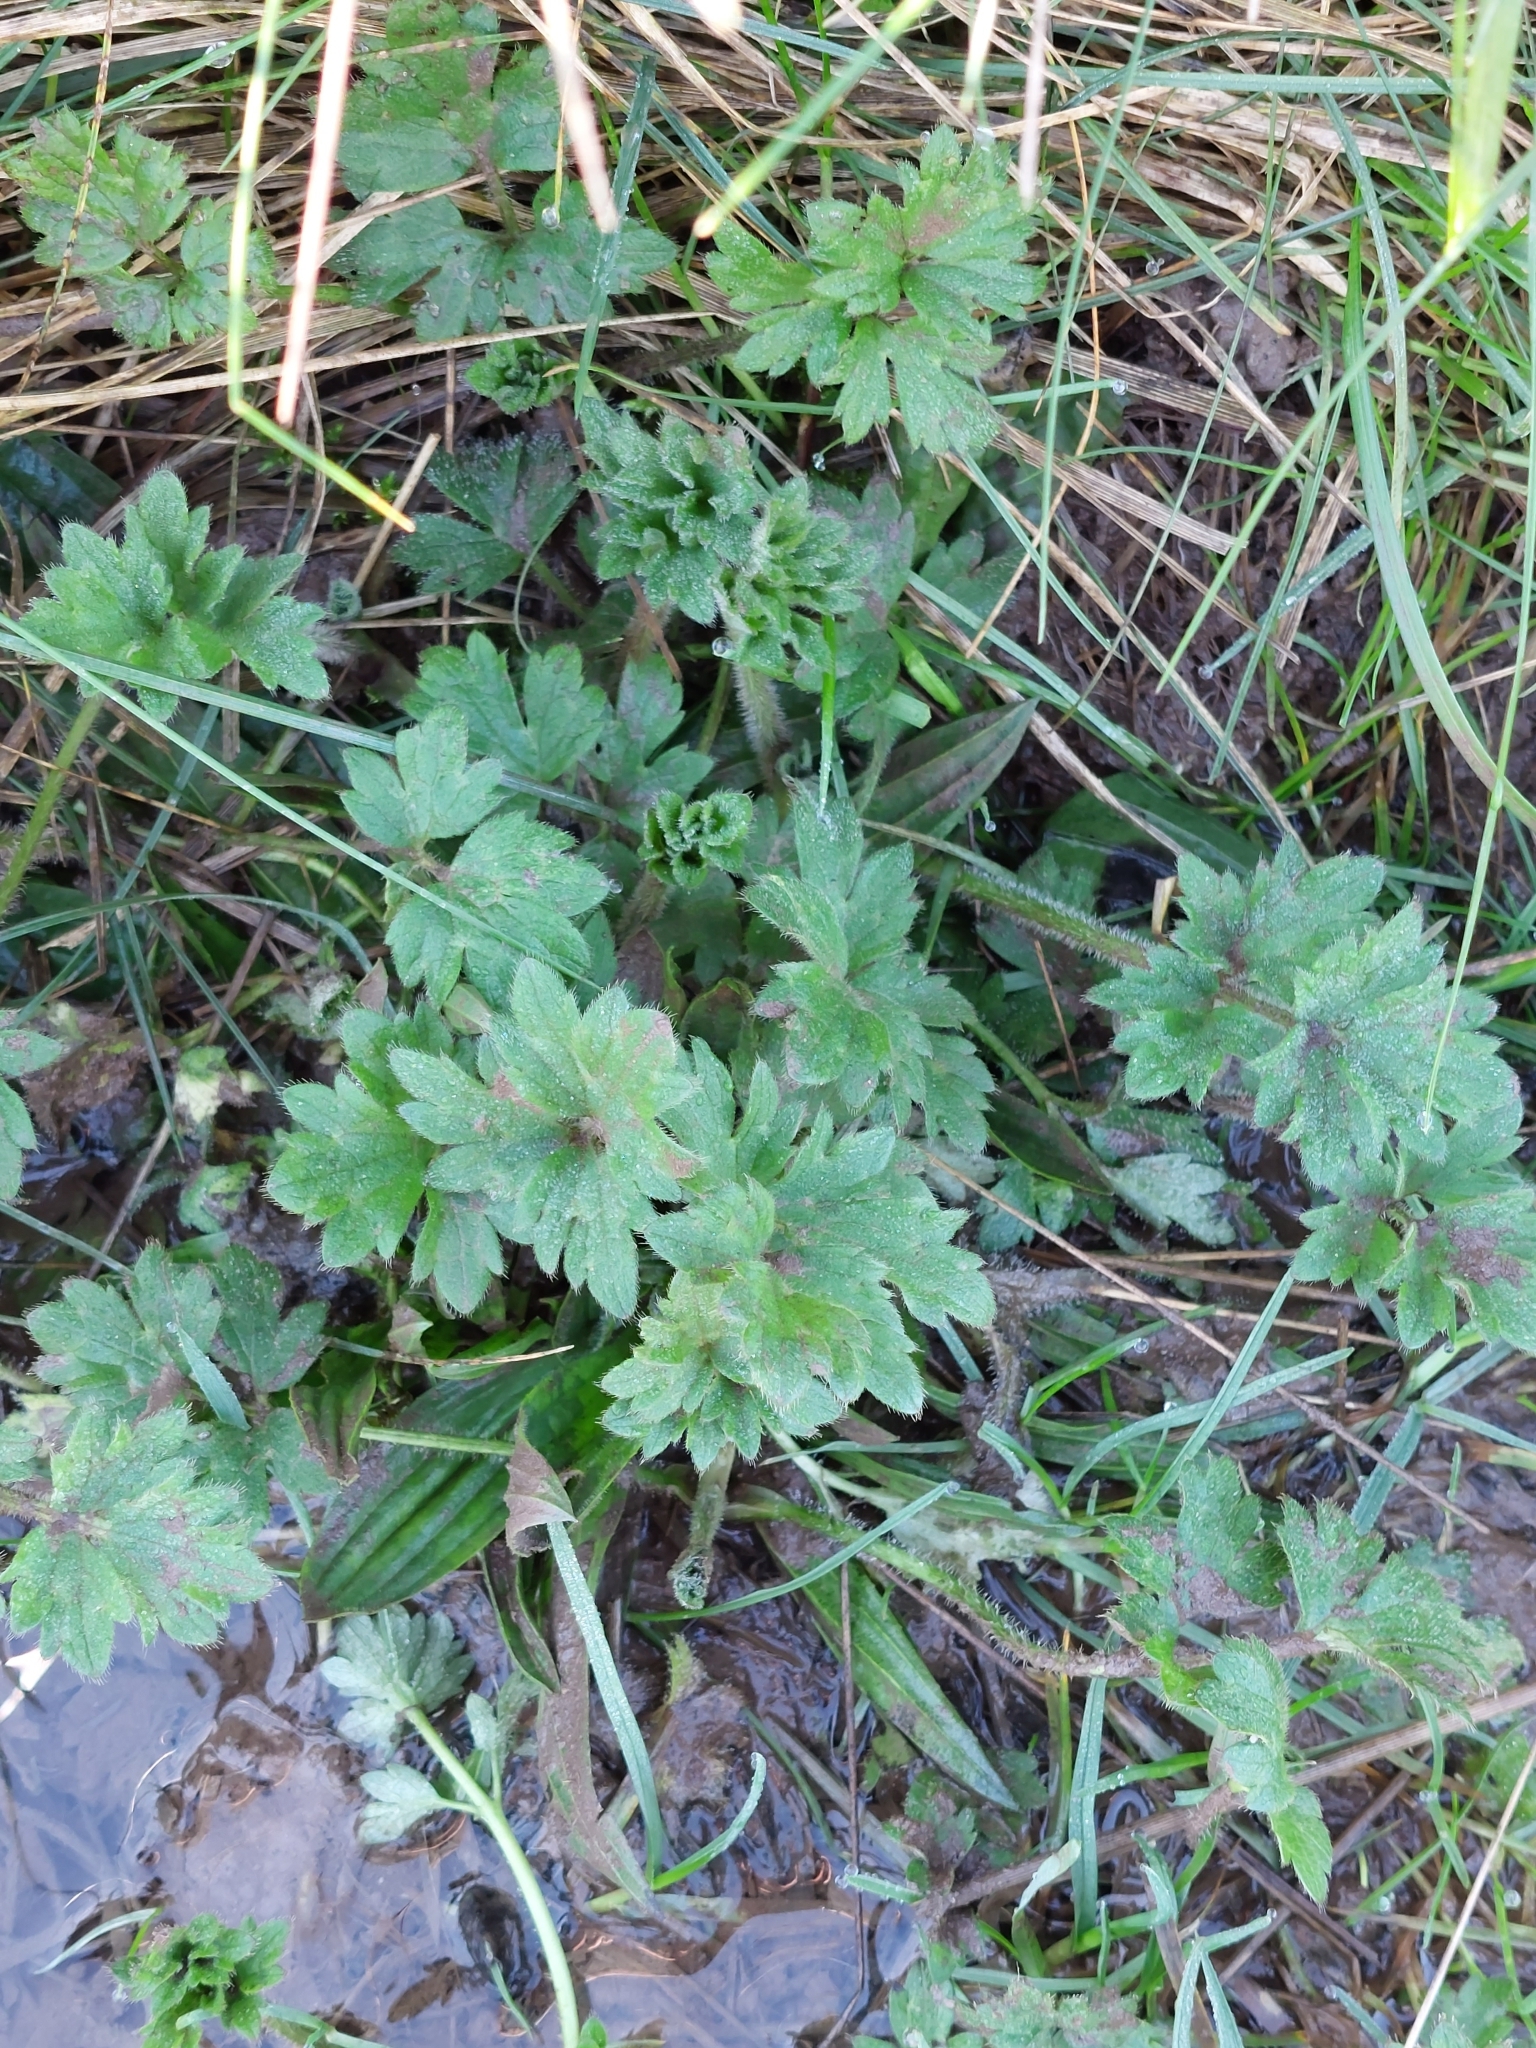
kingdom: Plantae
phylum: Tracheophyta
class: Magnoliopsida
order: Ranunculales
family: Ranunculaceae
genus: Ranunculus
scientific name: Ranunculus repens
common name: Creeping buttercup
